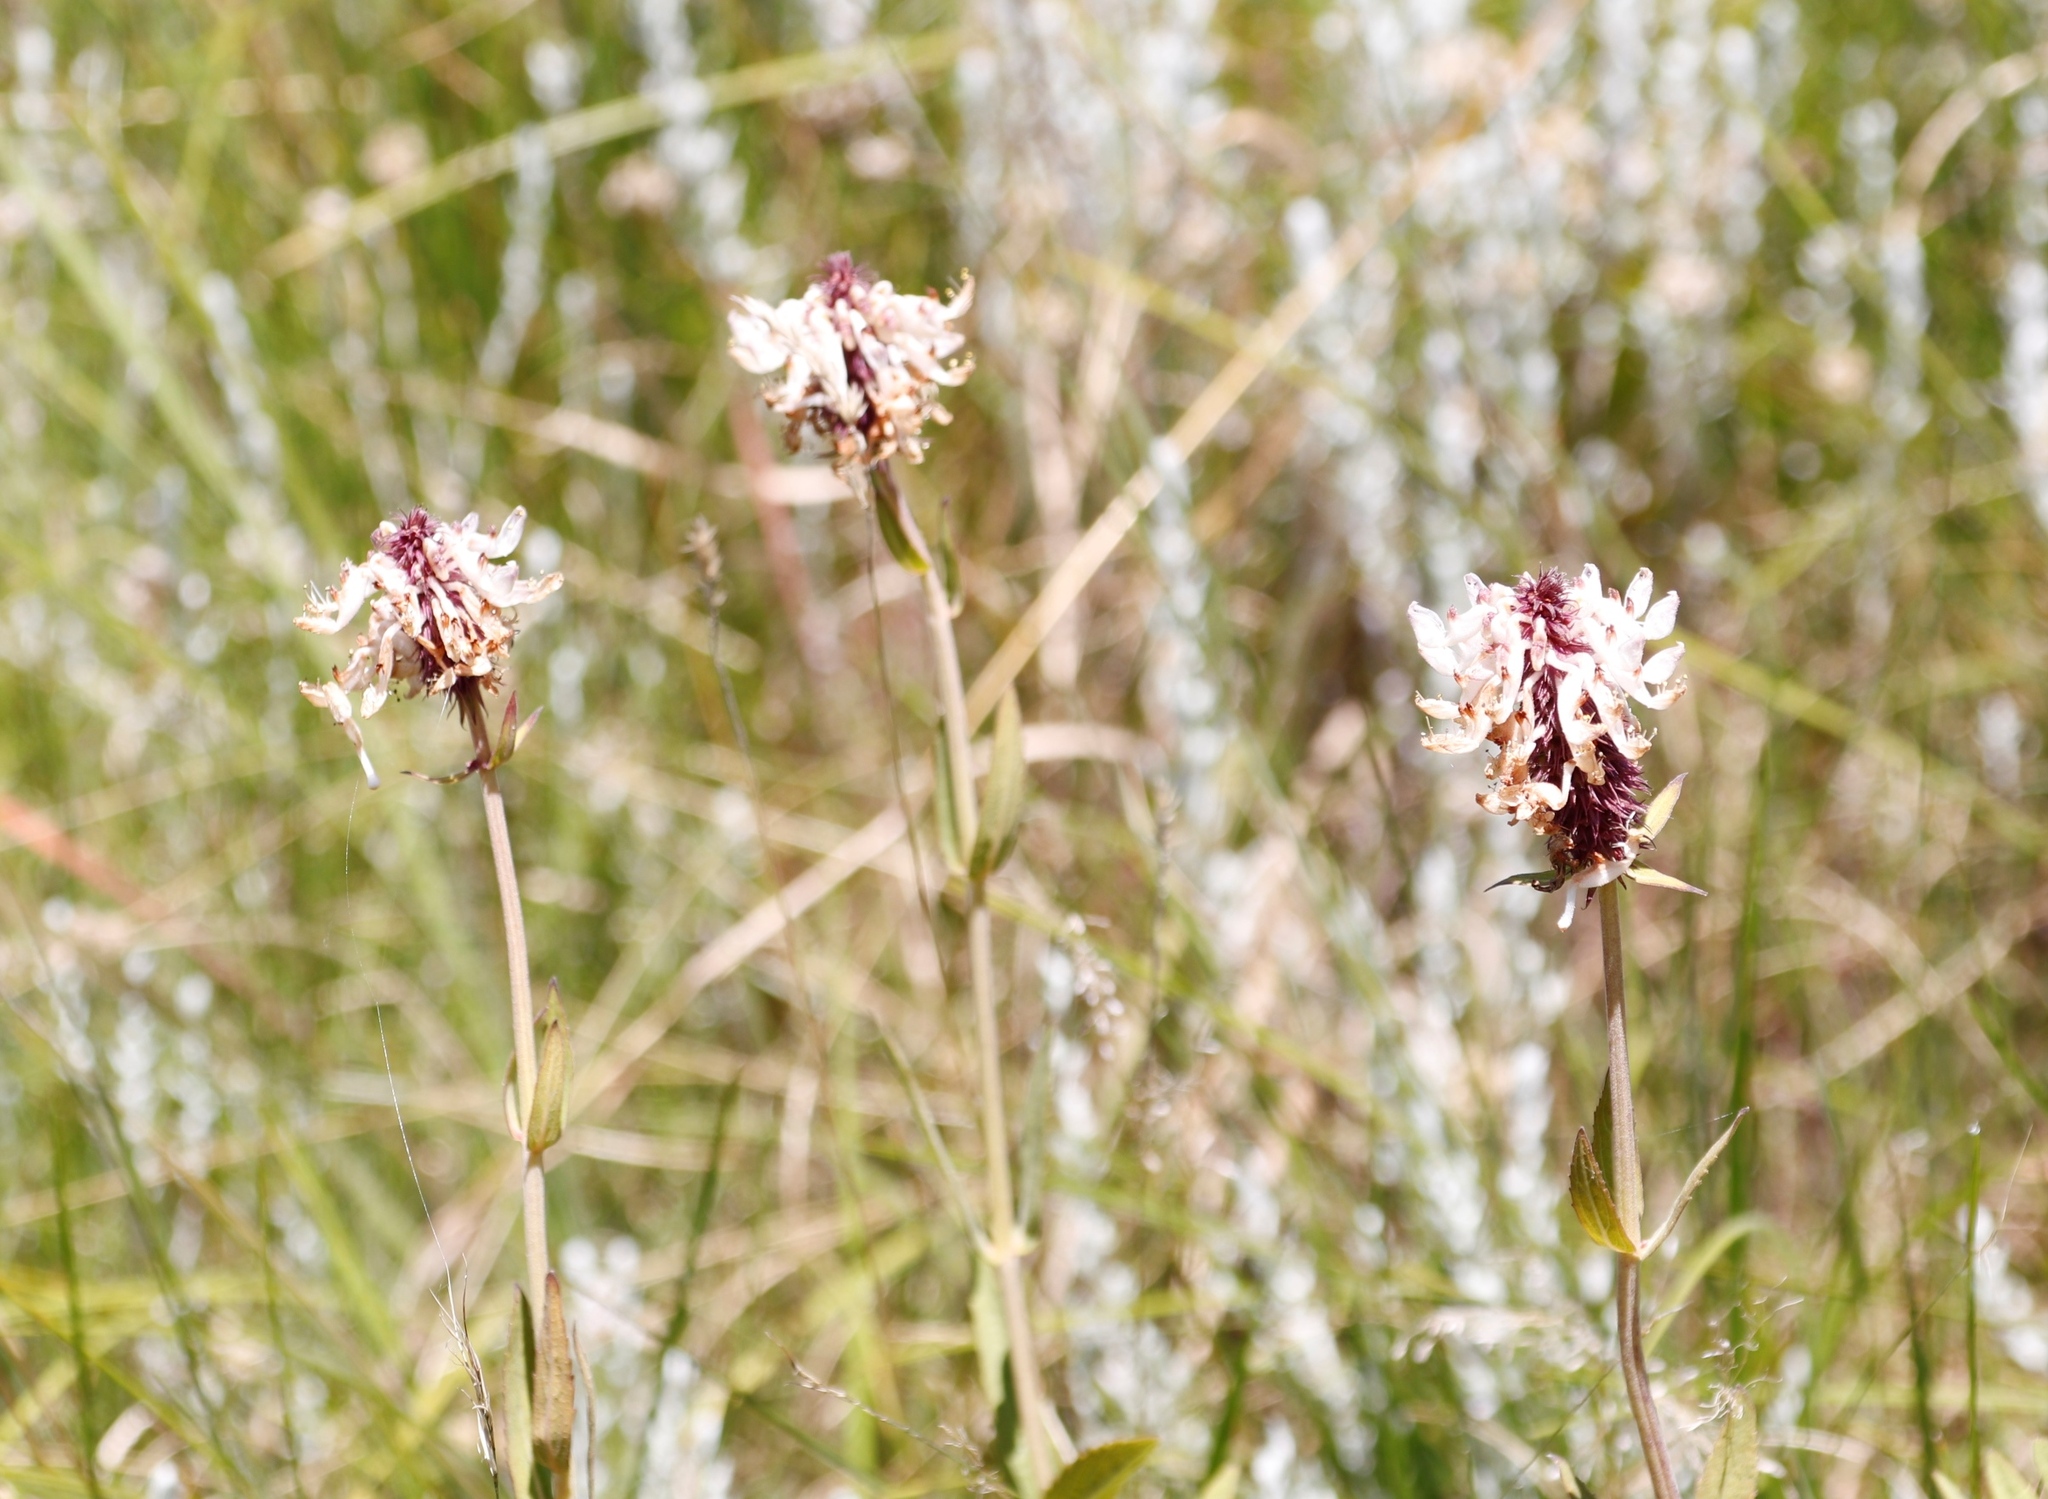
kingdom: Plantae
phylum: Tracheophyta
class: Magnoliopsida
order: Lamiales
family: Lamiaceae
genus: Coleus
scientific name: Coleus kirkii
